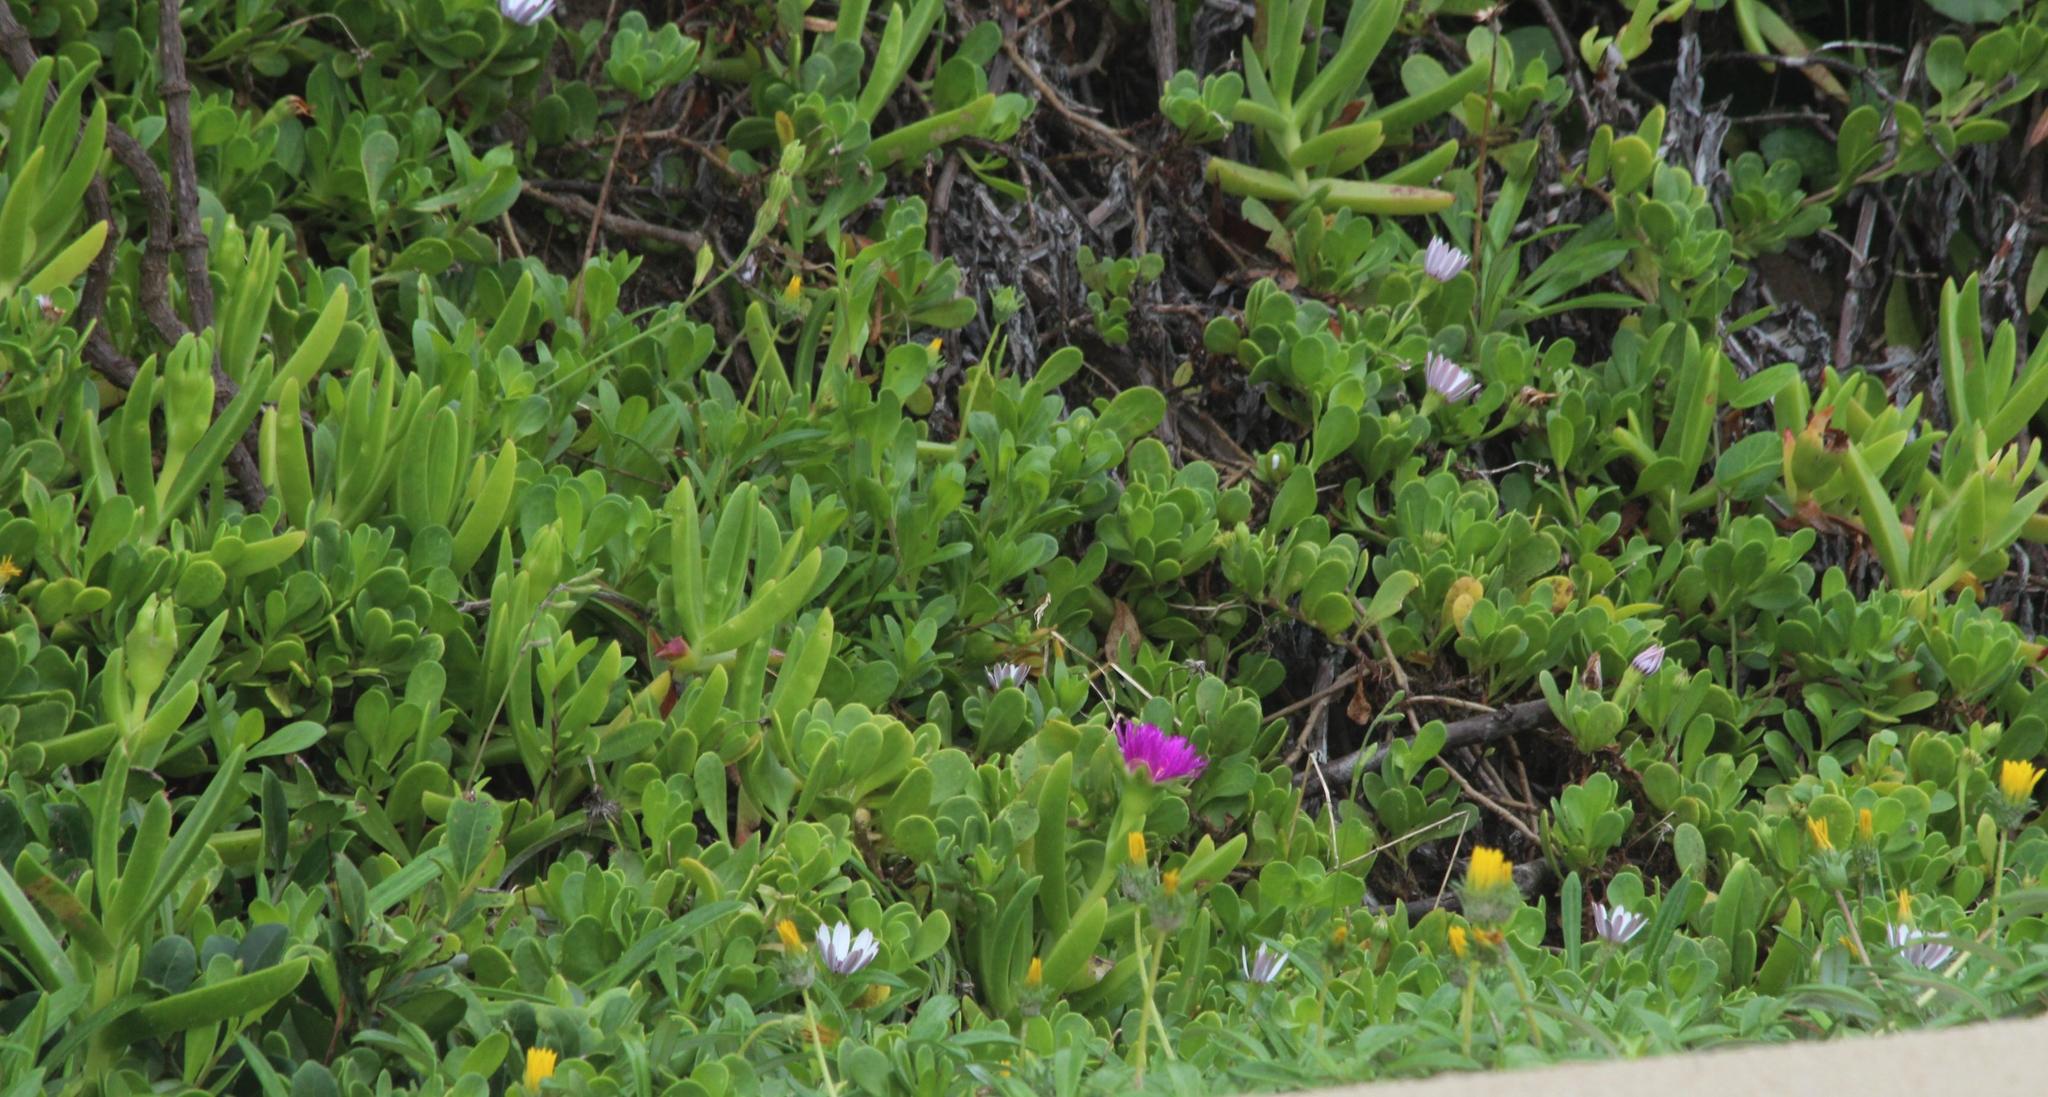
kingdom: Plantae
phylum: Tracheophyta
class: Magnoliopsida
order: Caryophyllales
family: Aizoaceae
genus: Carpobrotus
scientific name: Carpobrotus dimidiatus
